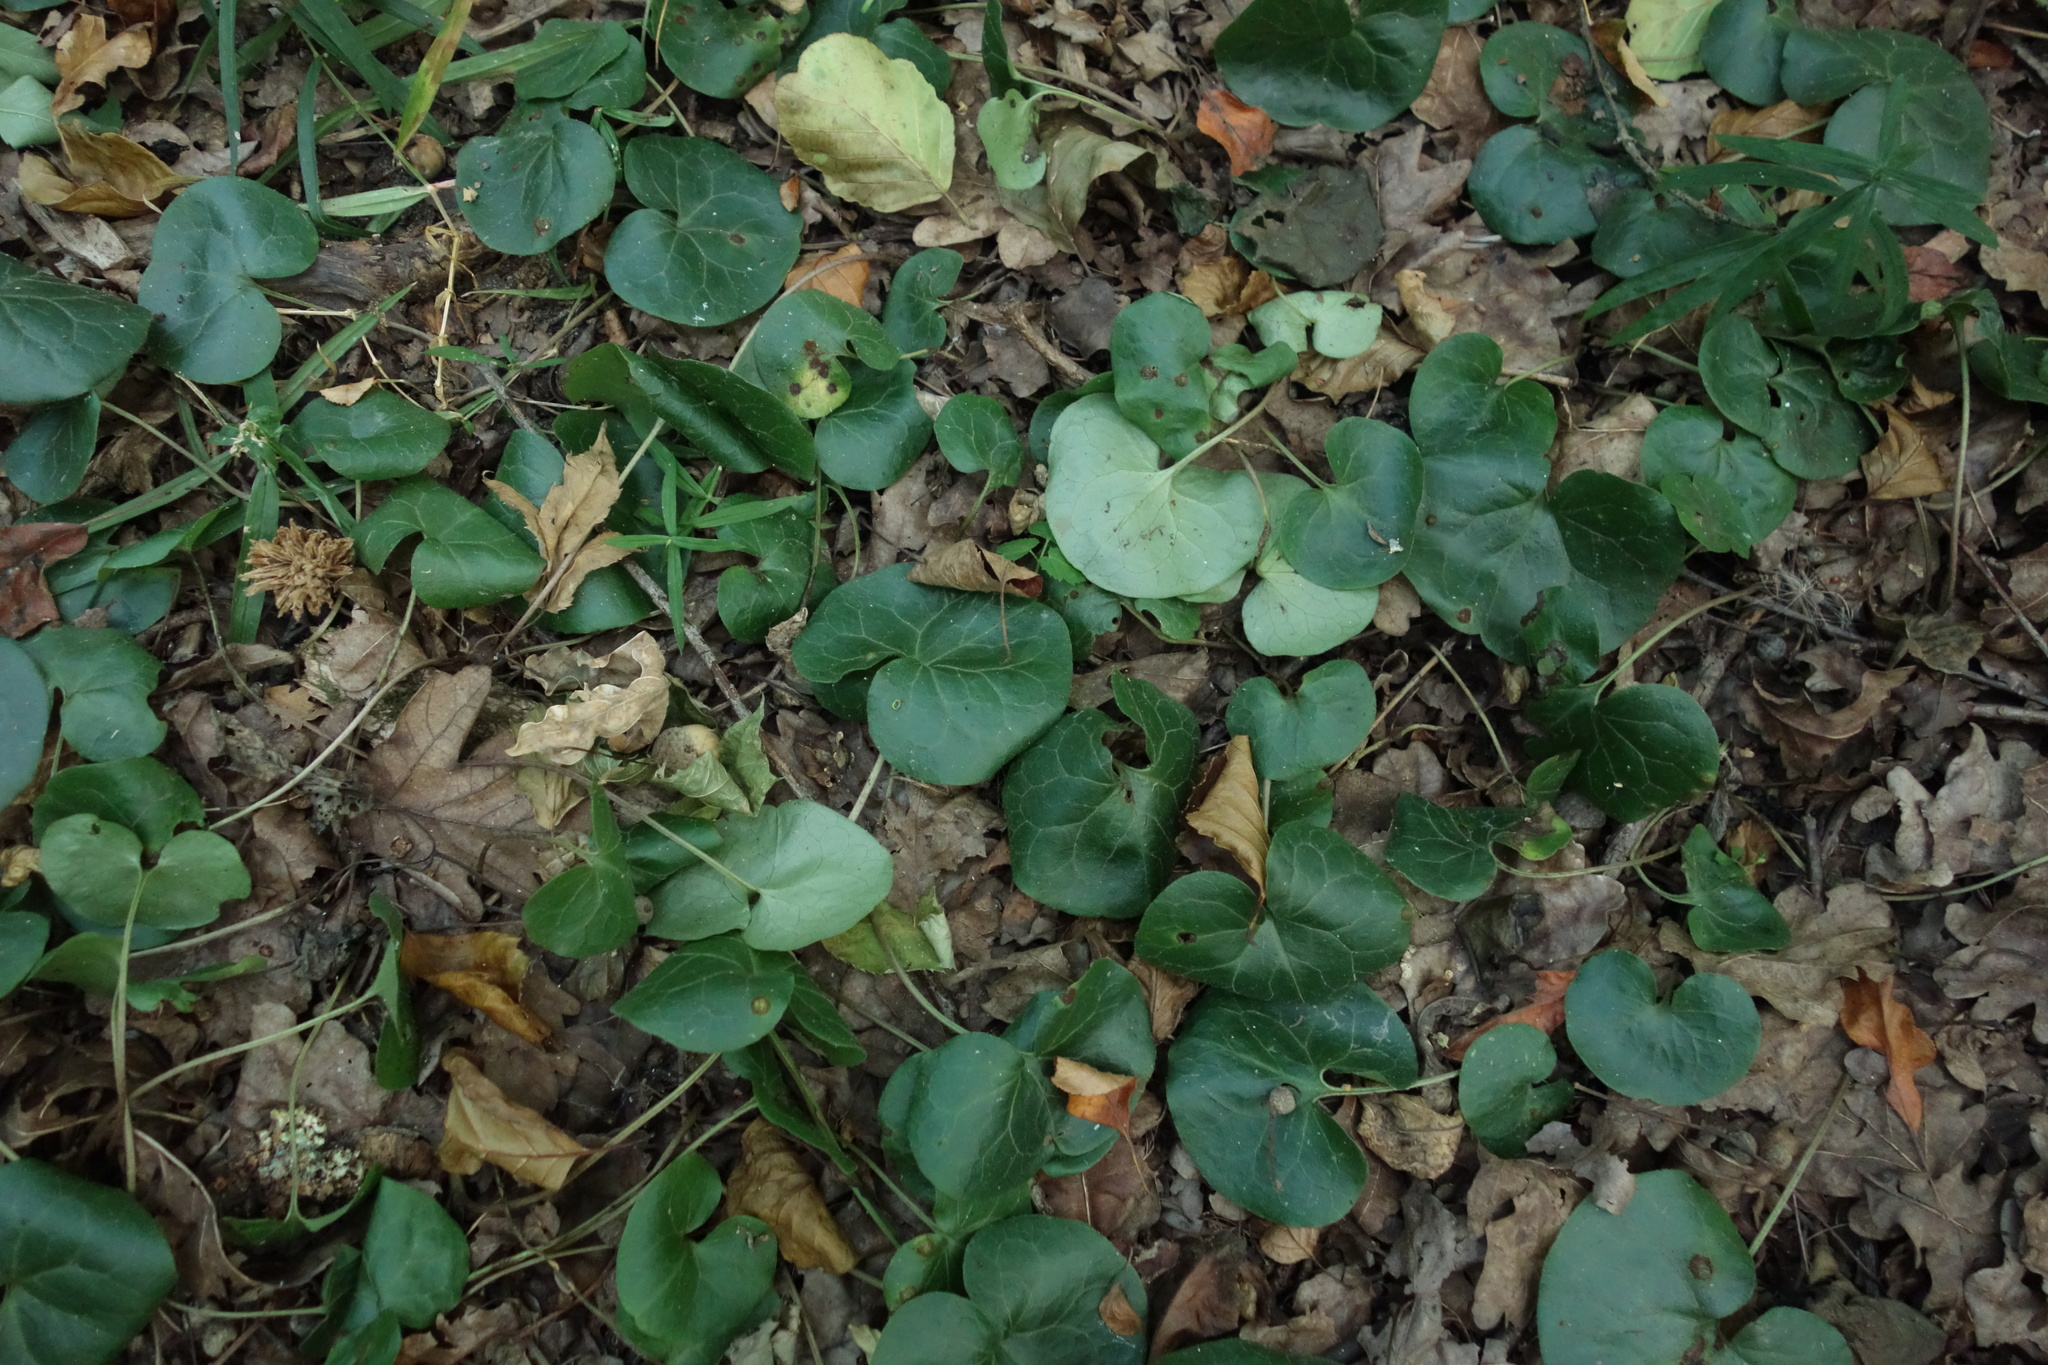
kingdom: Plantae
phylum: Tracheophyta
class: Magnoliopsida
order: Piperales
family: Aristolochiaceae
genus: Asarum
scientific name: Asarum europaeum
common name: Asarabacca
